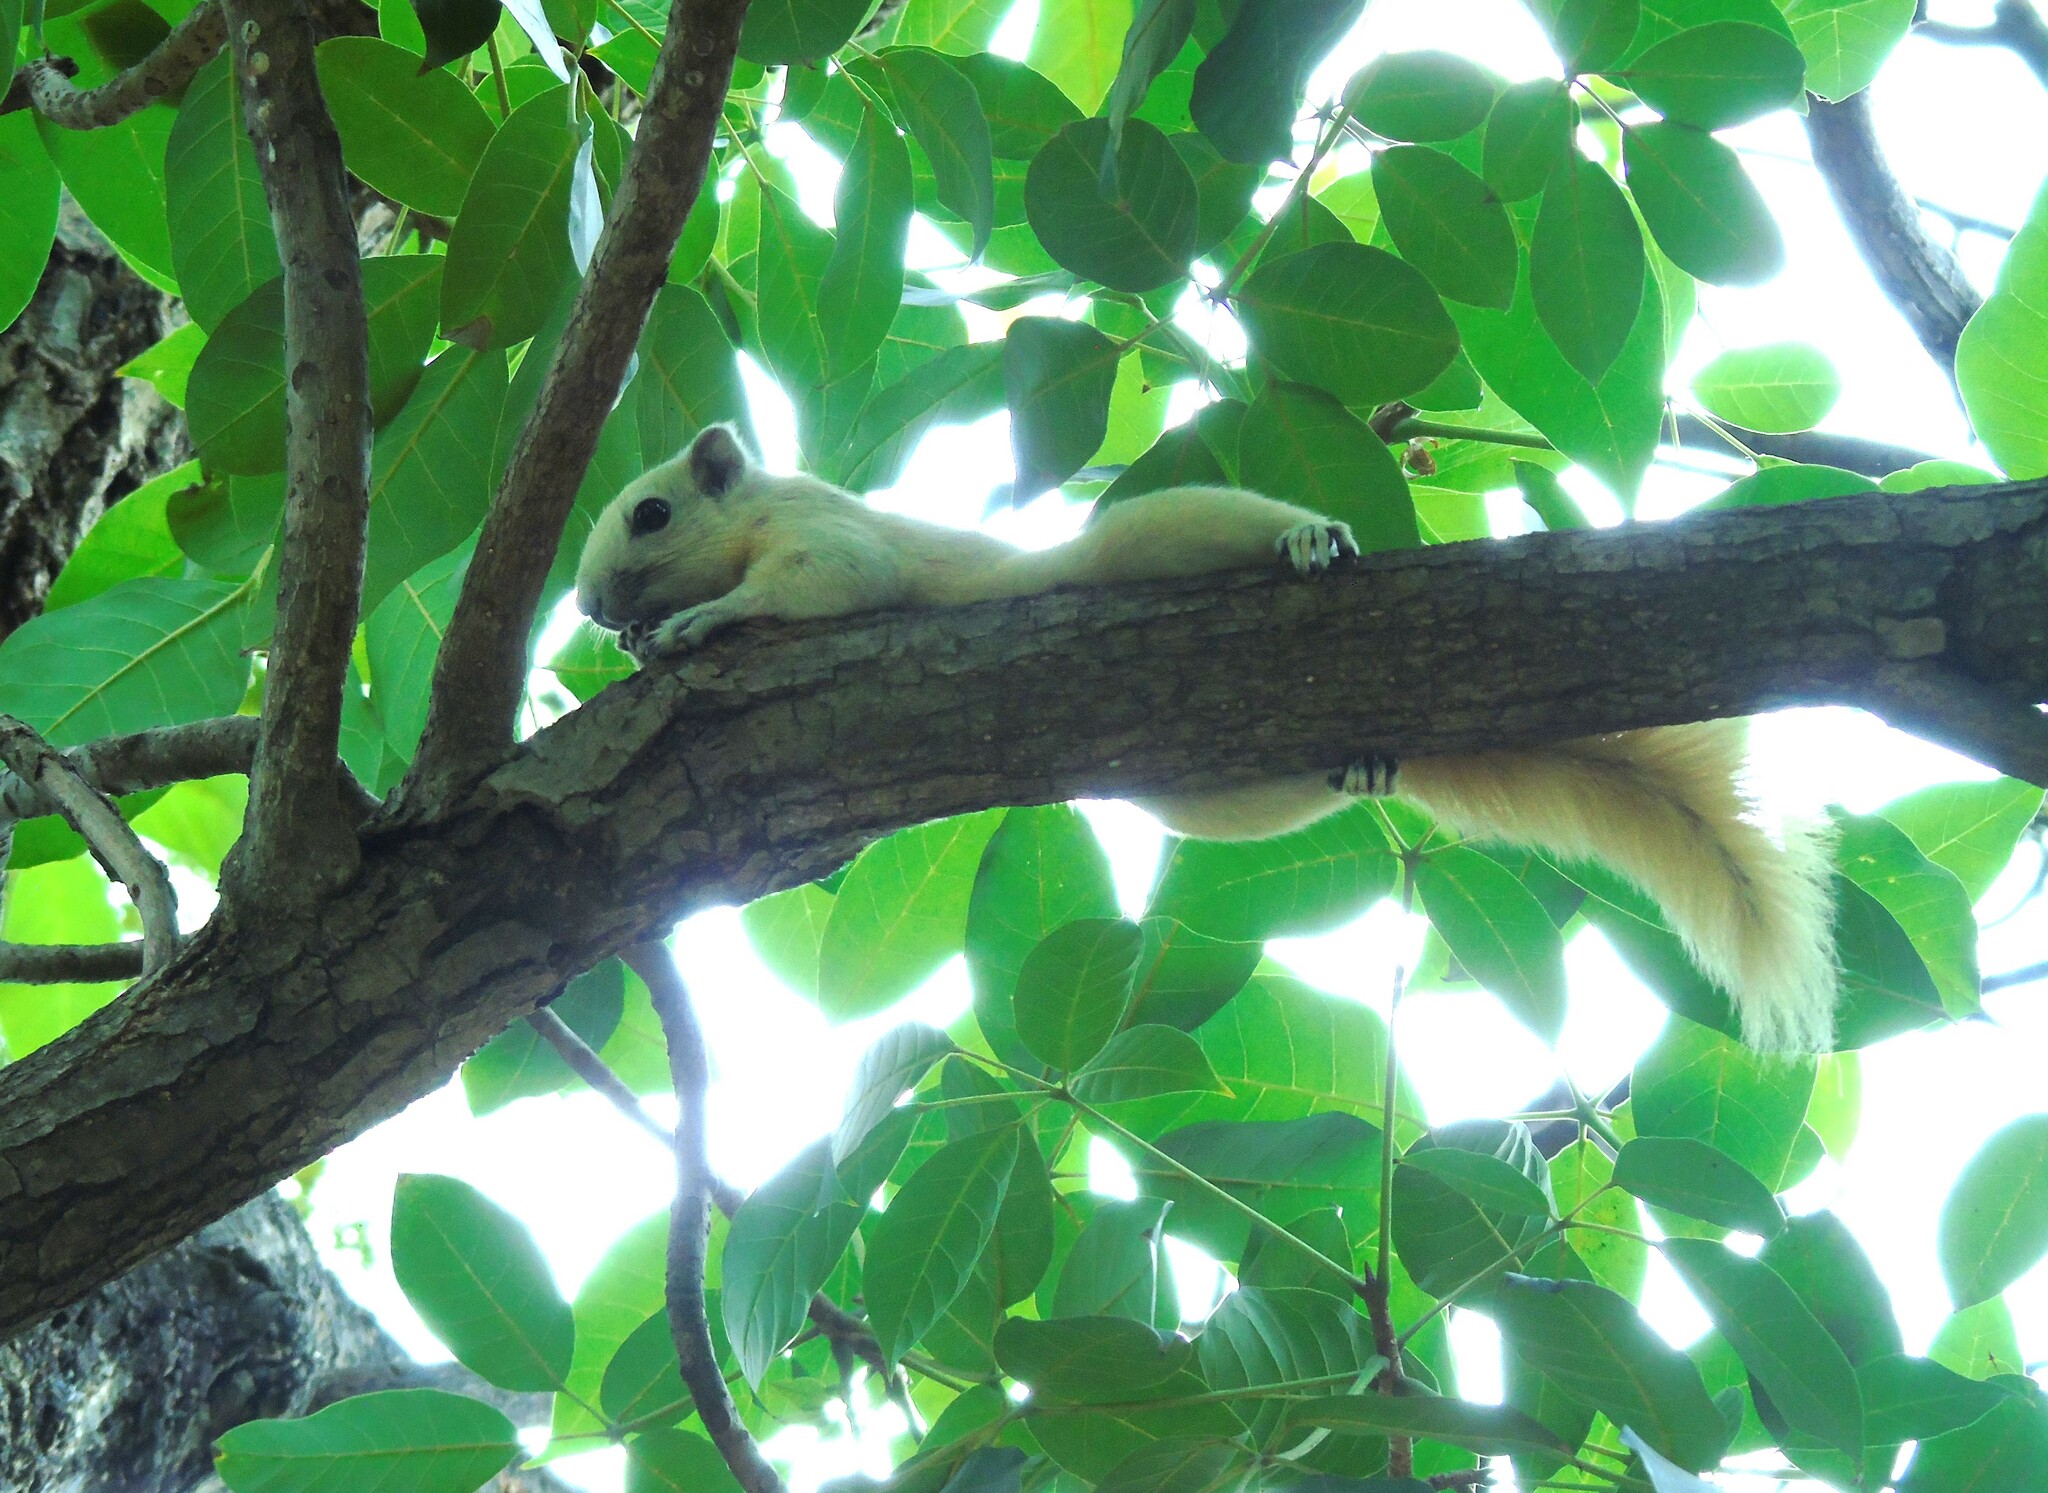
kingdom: Animalia
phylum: Chordata
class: Mammalia
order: Rodentia
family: Sciuridae
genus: Callosciurus
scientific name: Callosciurus finlaysonii
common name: Finlayson's squirrel
